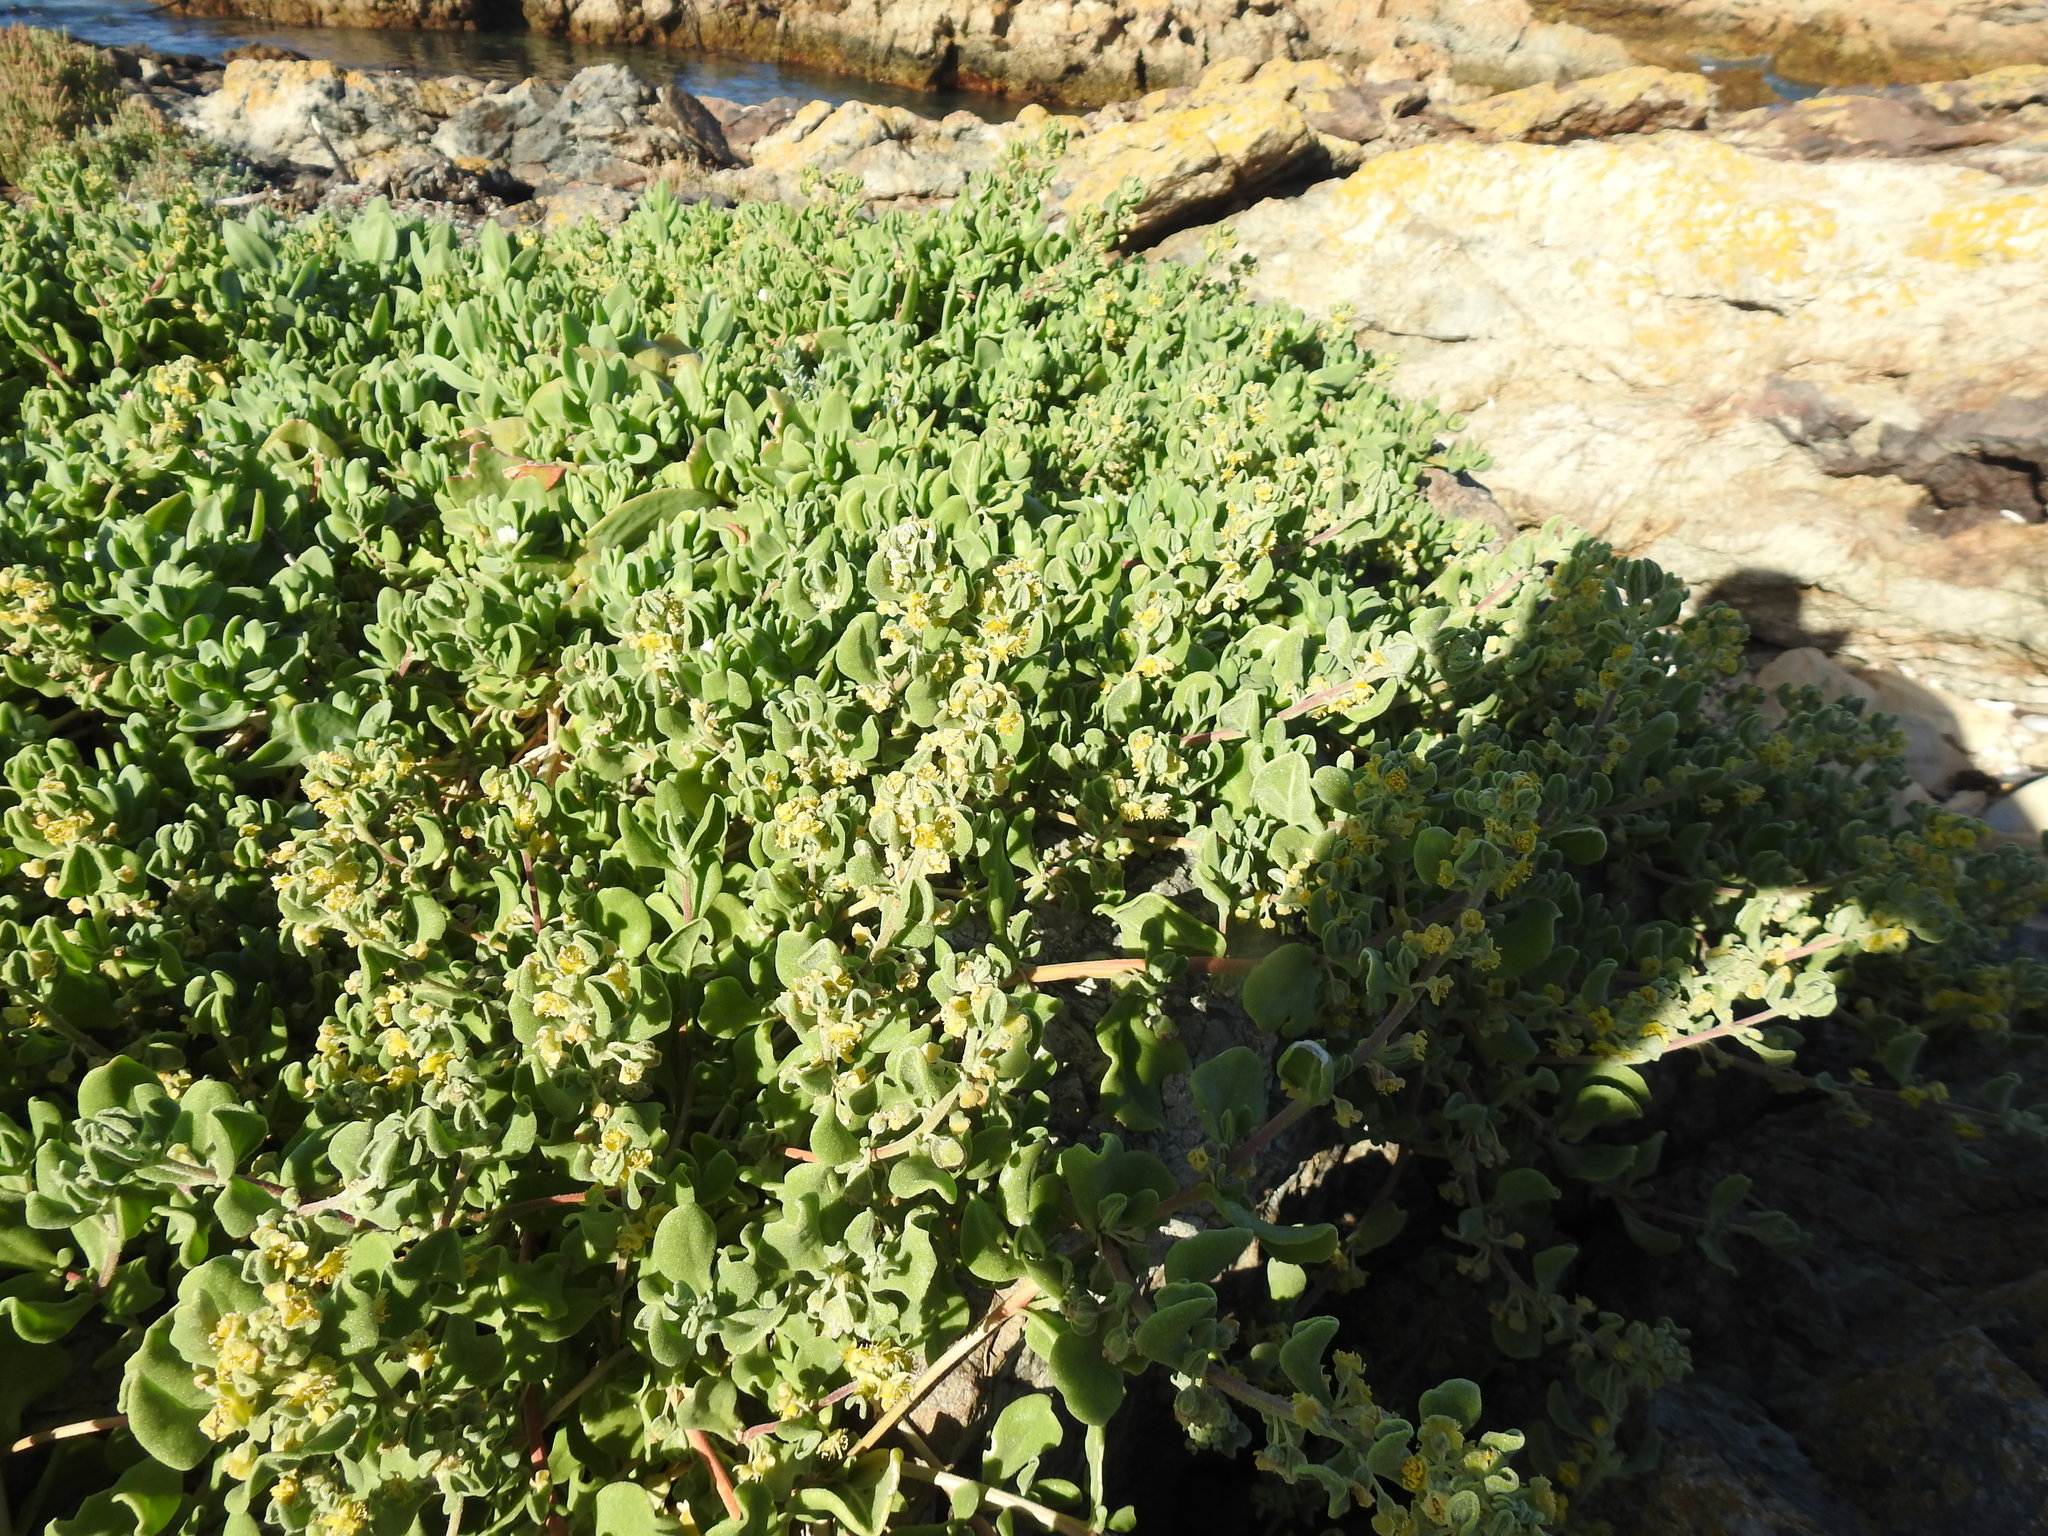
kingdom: Plantae
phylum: Tracheophyta
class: Magnoliopsida
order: Caryophyllales
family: Aizoaceae
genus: Tetragonia
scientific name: Tetragonia decumbens
